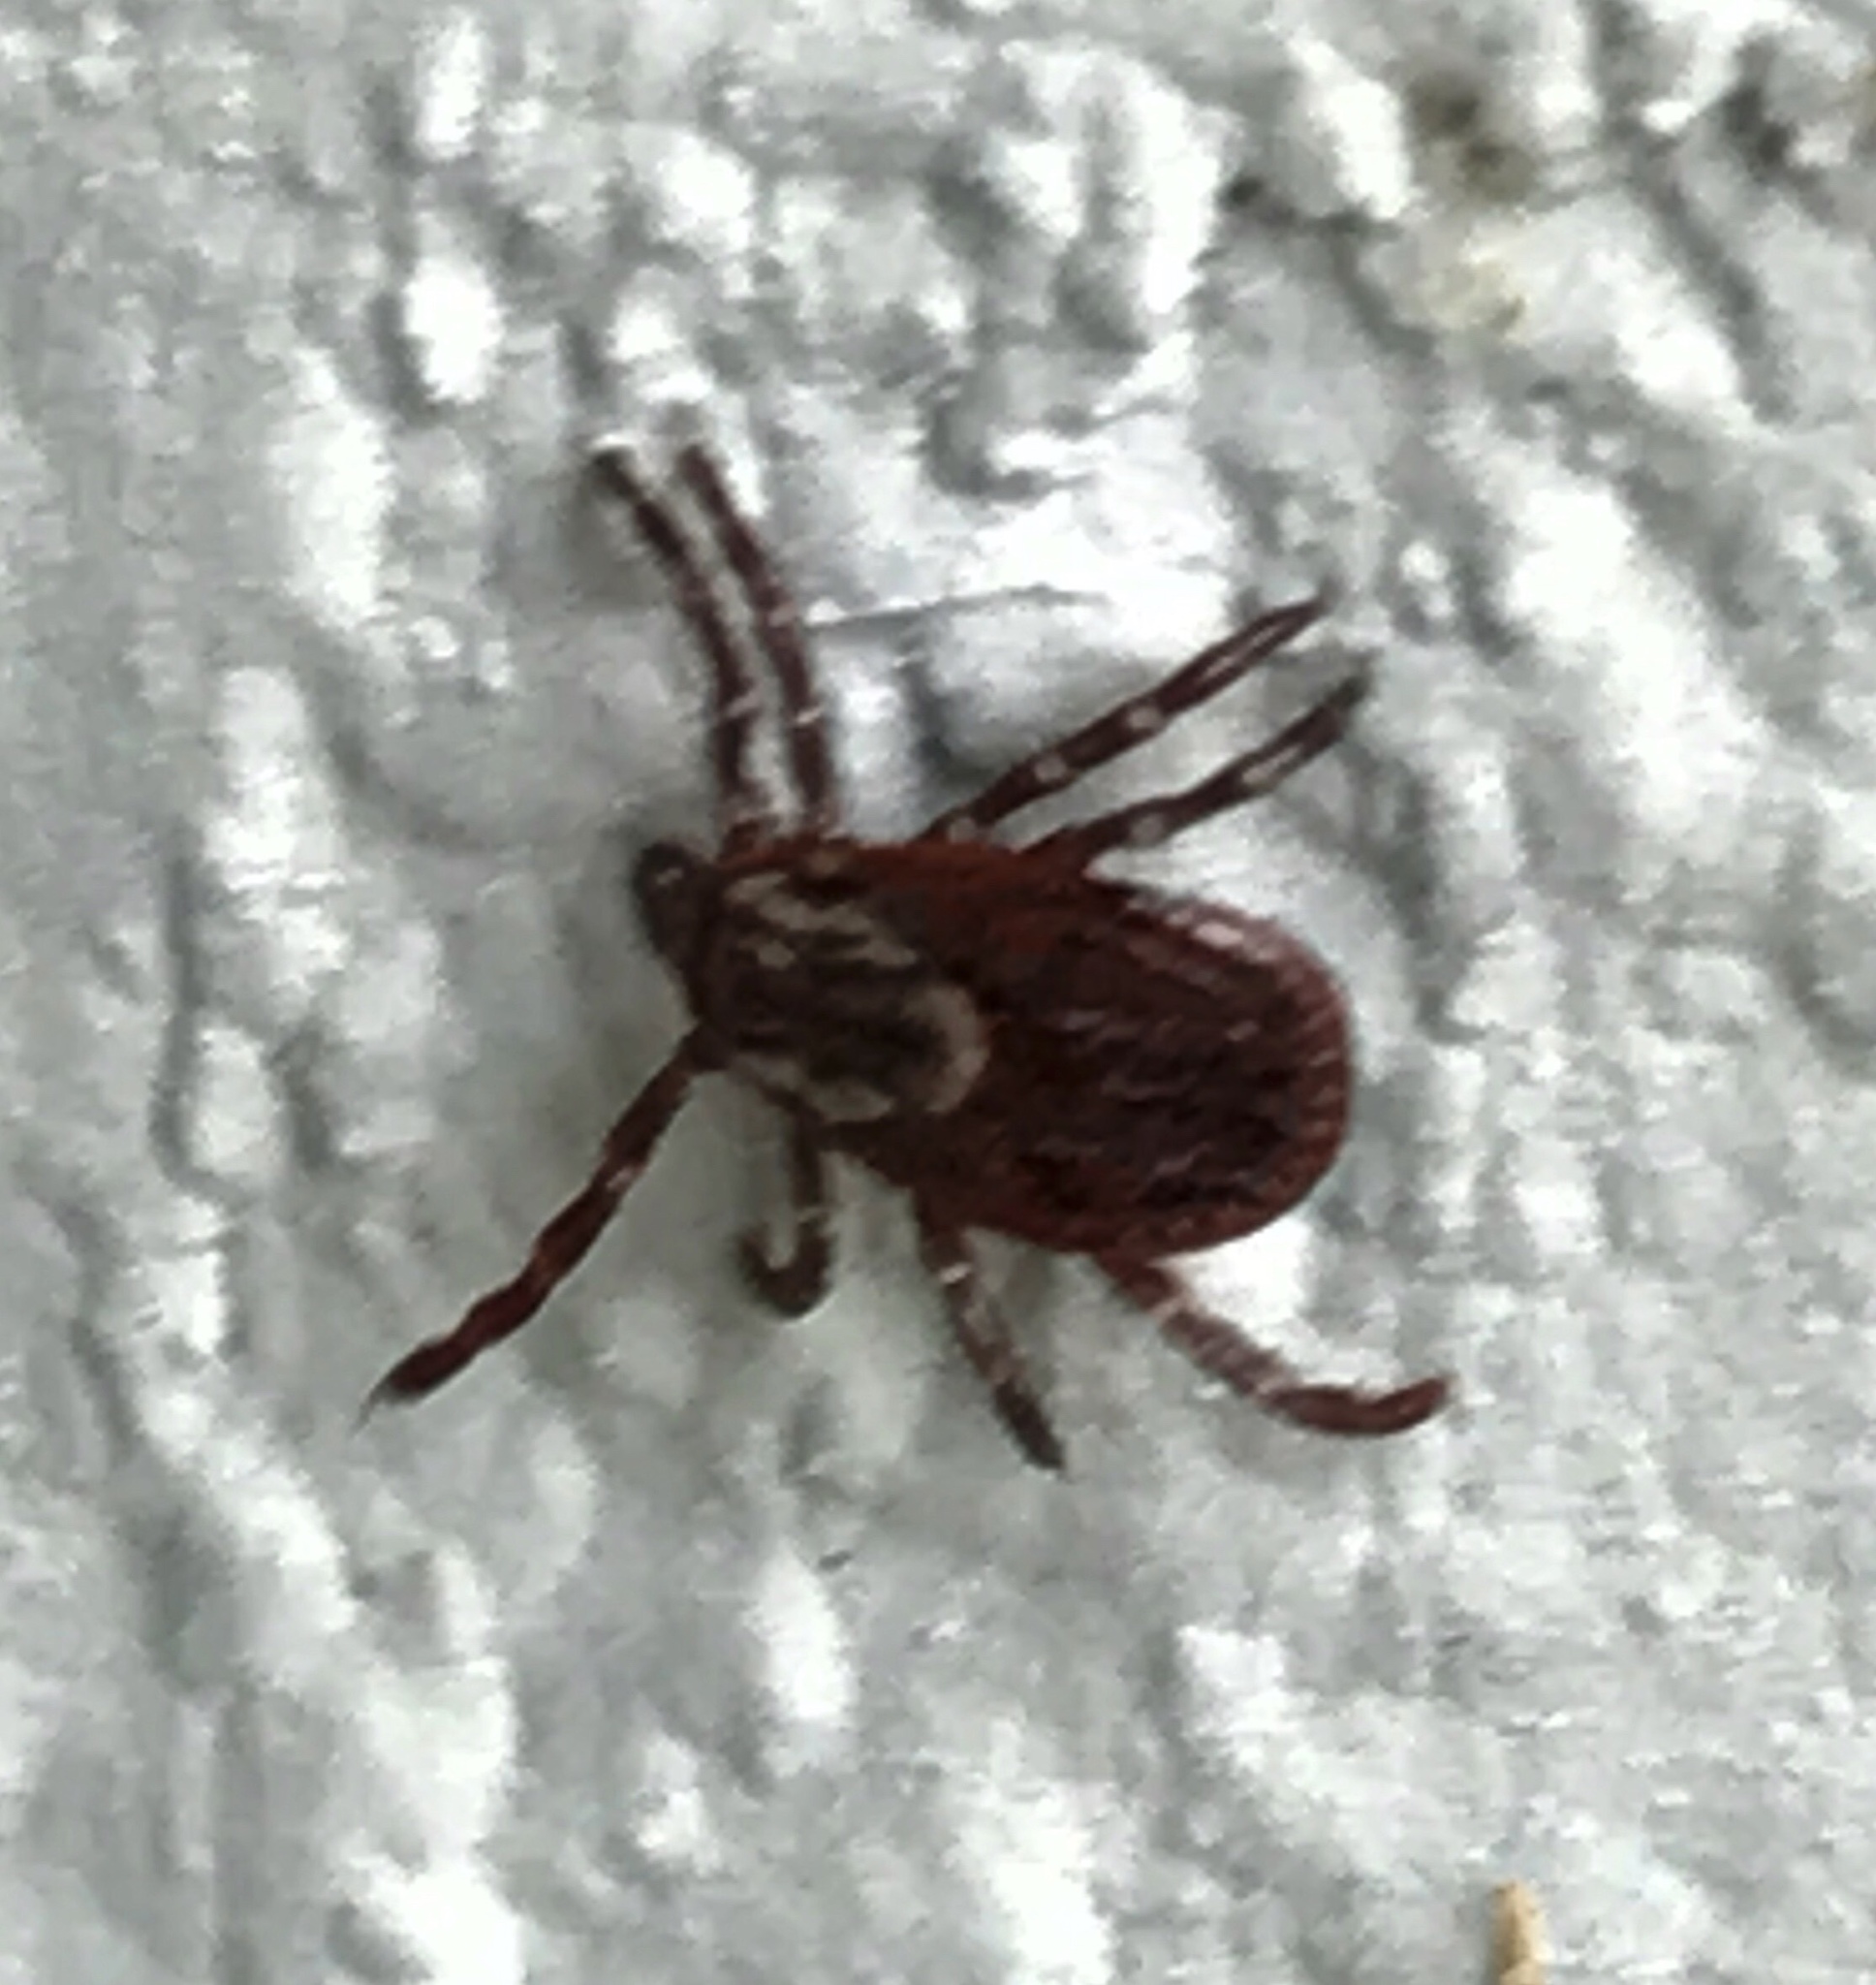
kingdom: Animalia
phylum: Arthropoda
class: Arachnida
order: Ixodida
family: Ixodidae
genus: Dermacentor
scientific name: Dermacentor variabilis
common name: American dog tick
